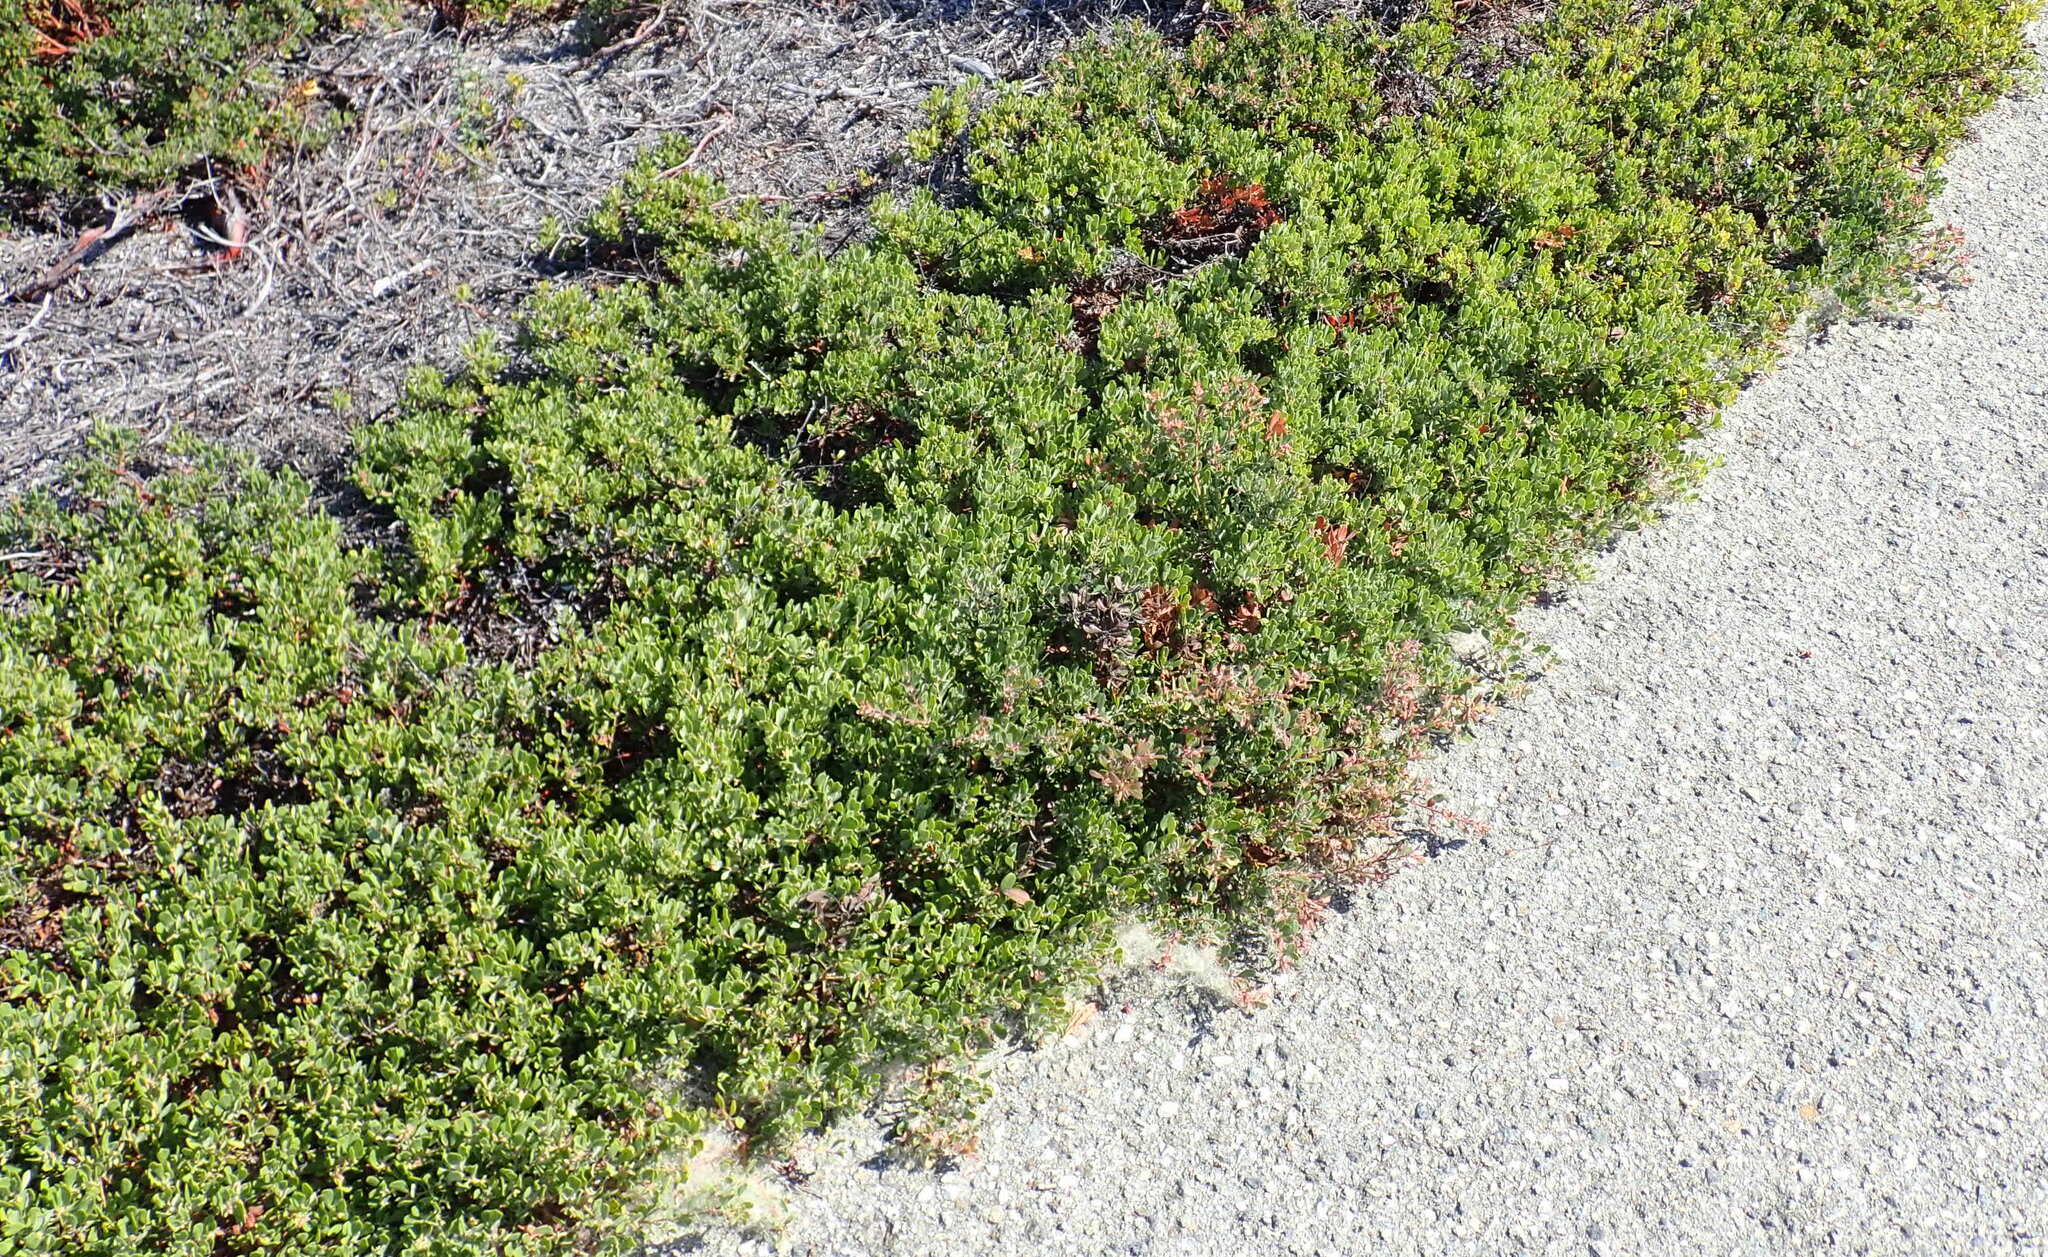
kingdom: Animalia
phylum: Arthropoda
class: Insecta
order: Hemiptera
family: Aphididae
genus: Tamalia
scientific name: Tamalia coweni
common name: Manzanita leafgall aphid
